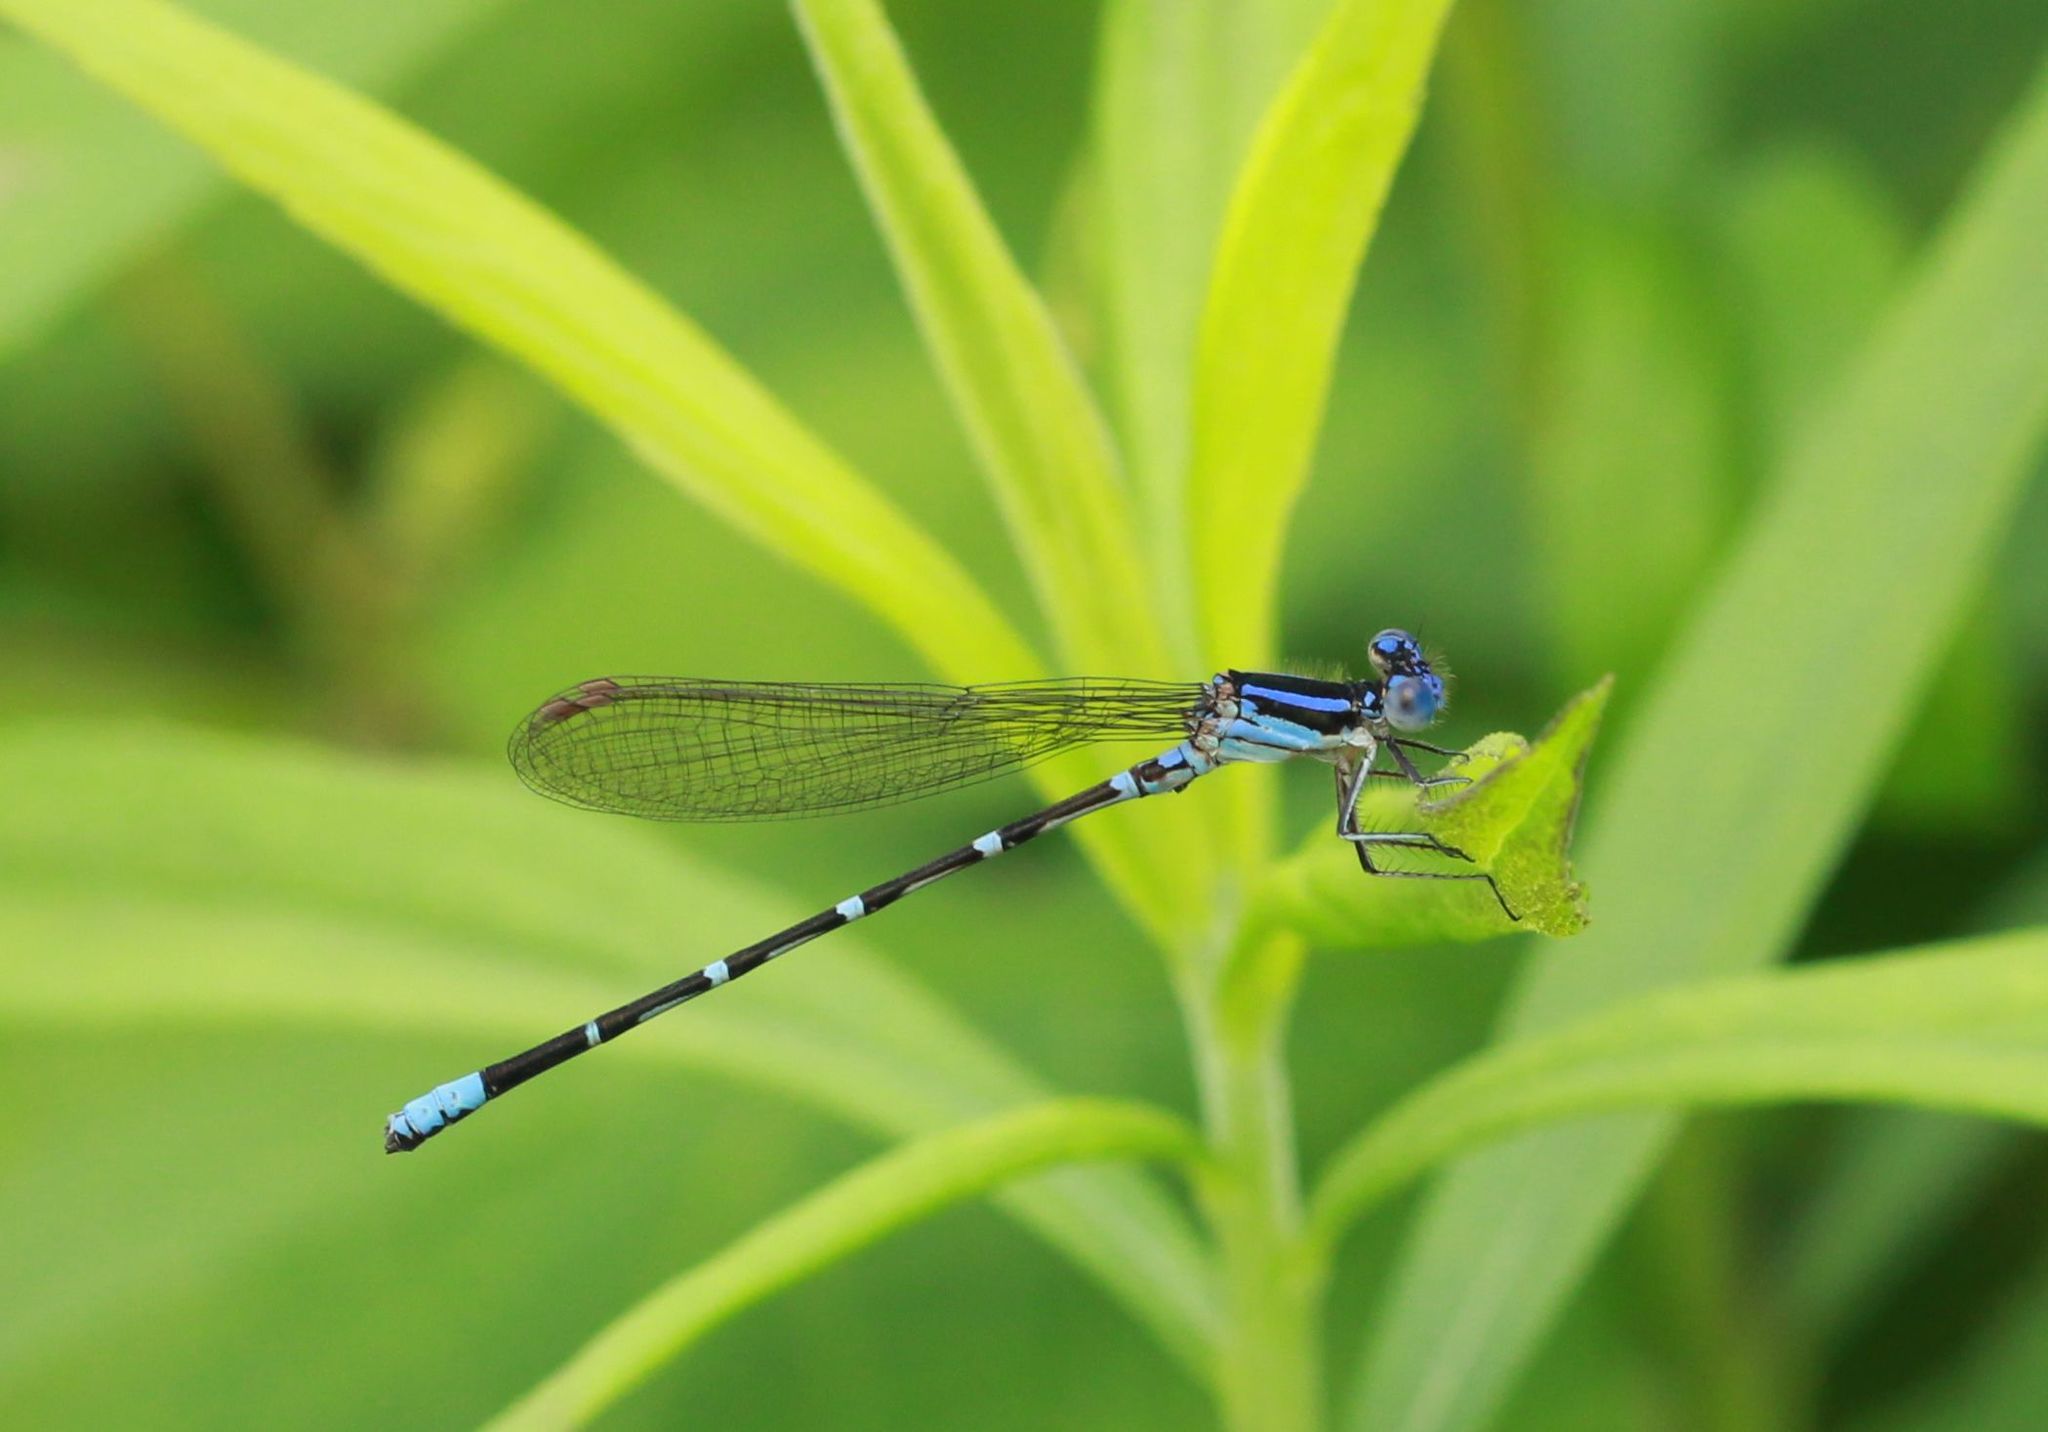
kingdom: Animalia
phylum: Arthropoda
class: Insecta
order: Odonata
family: Coenagrionidae
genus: Argia
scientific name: Argia sedula
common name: Blue-ringed dancer
